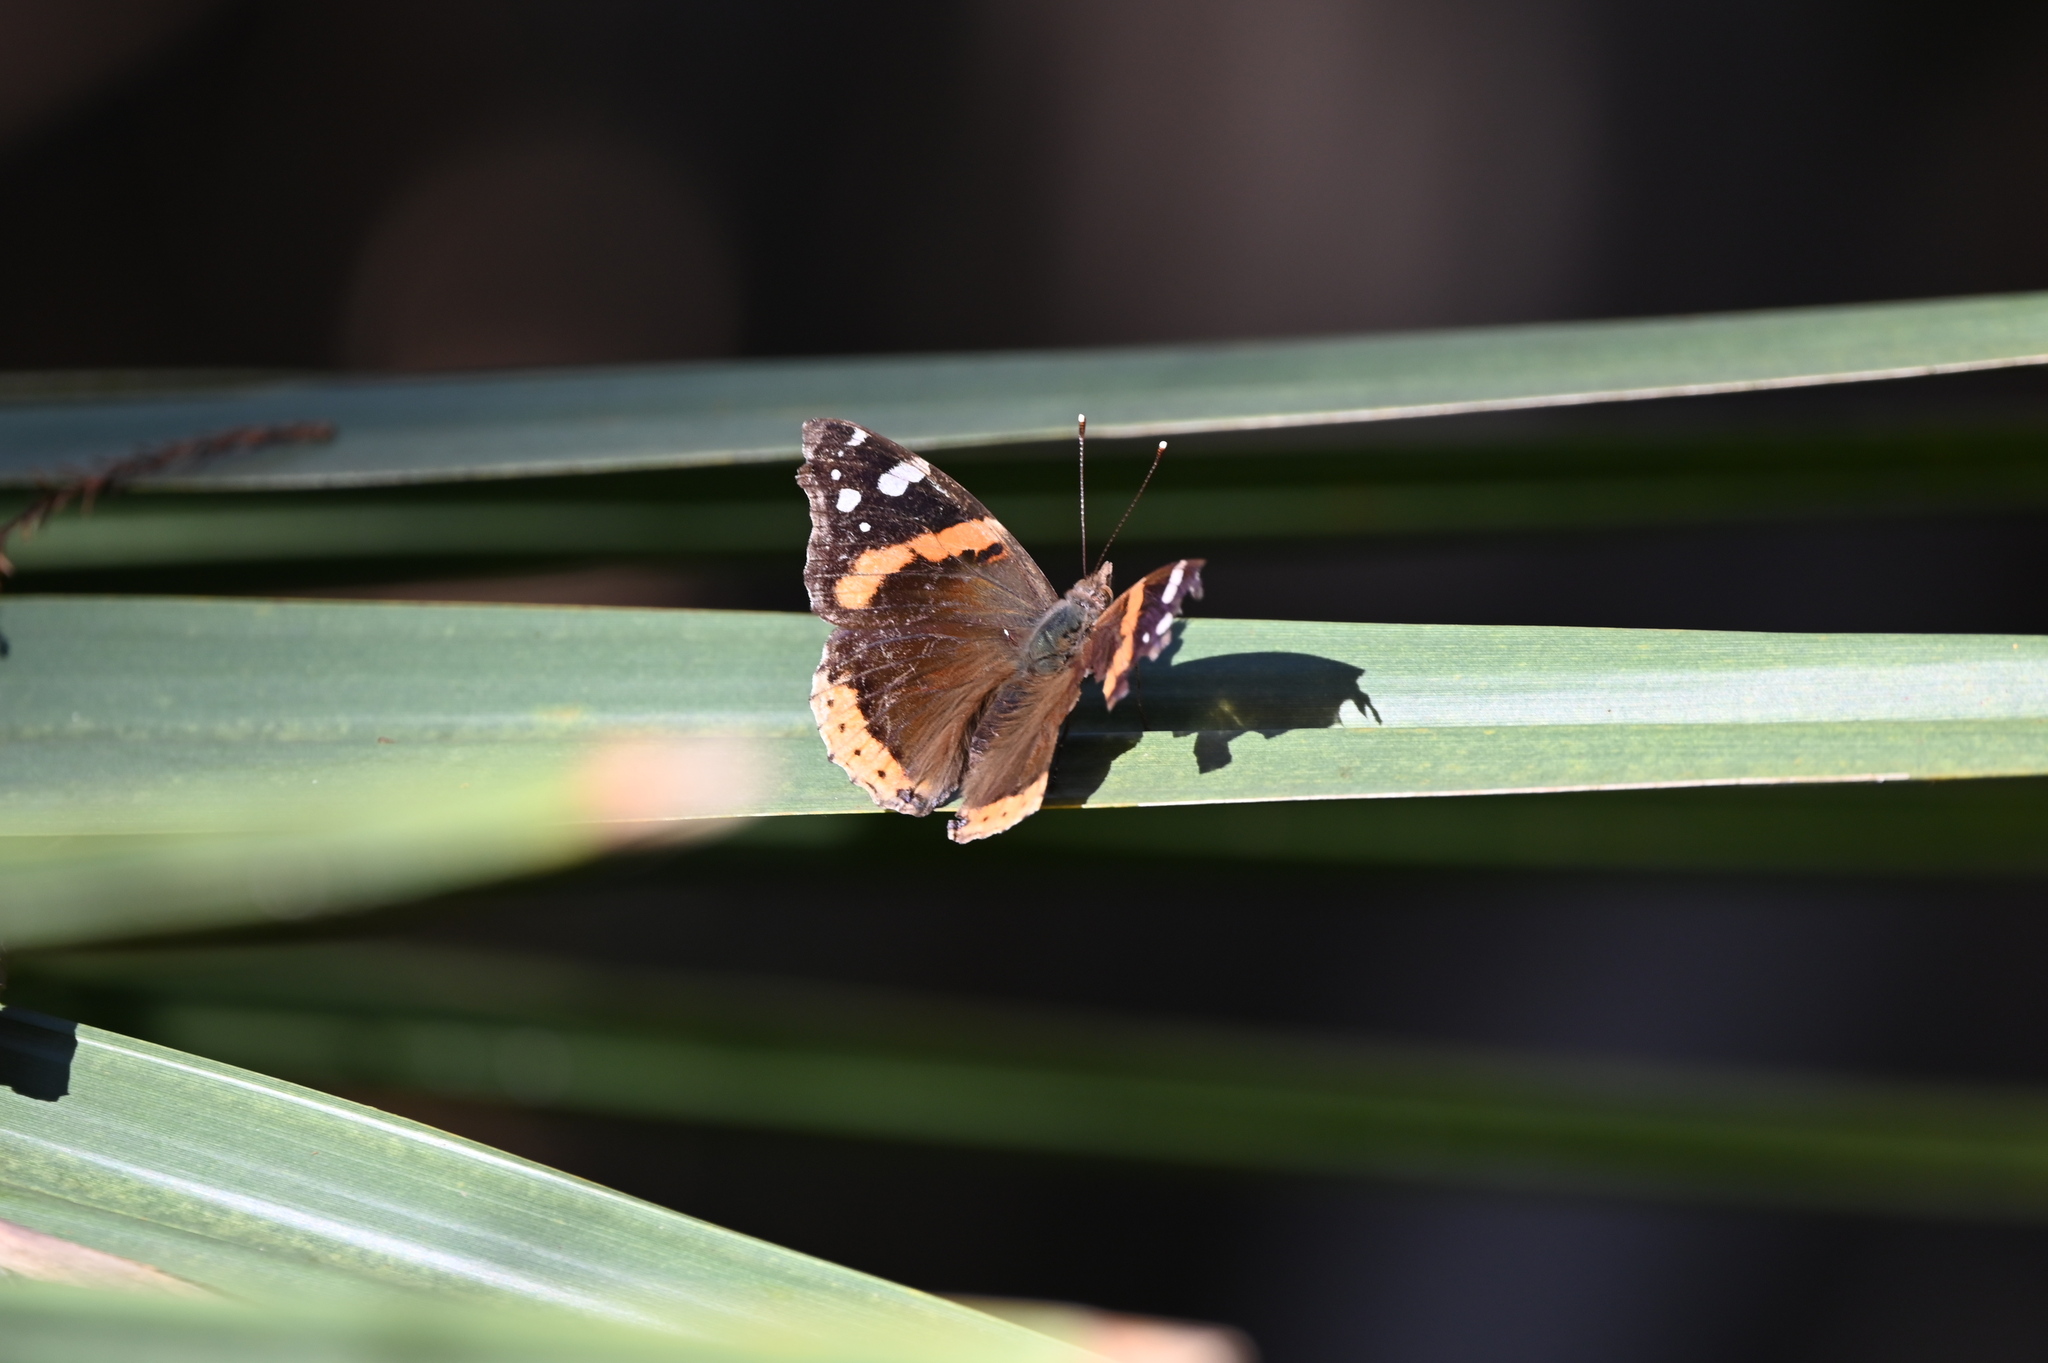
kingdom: Animalia
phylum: Arthropoda
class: Insecta
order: Lepidoptera
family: Nymphalidae
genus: Vanessa
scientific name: Vanessa atalanta
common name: Red admiral
